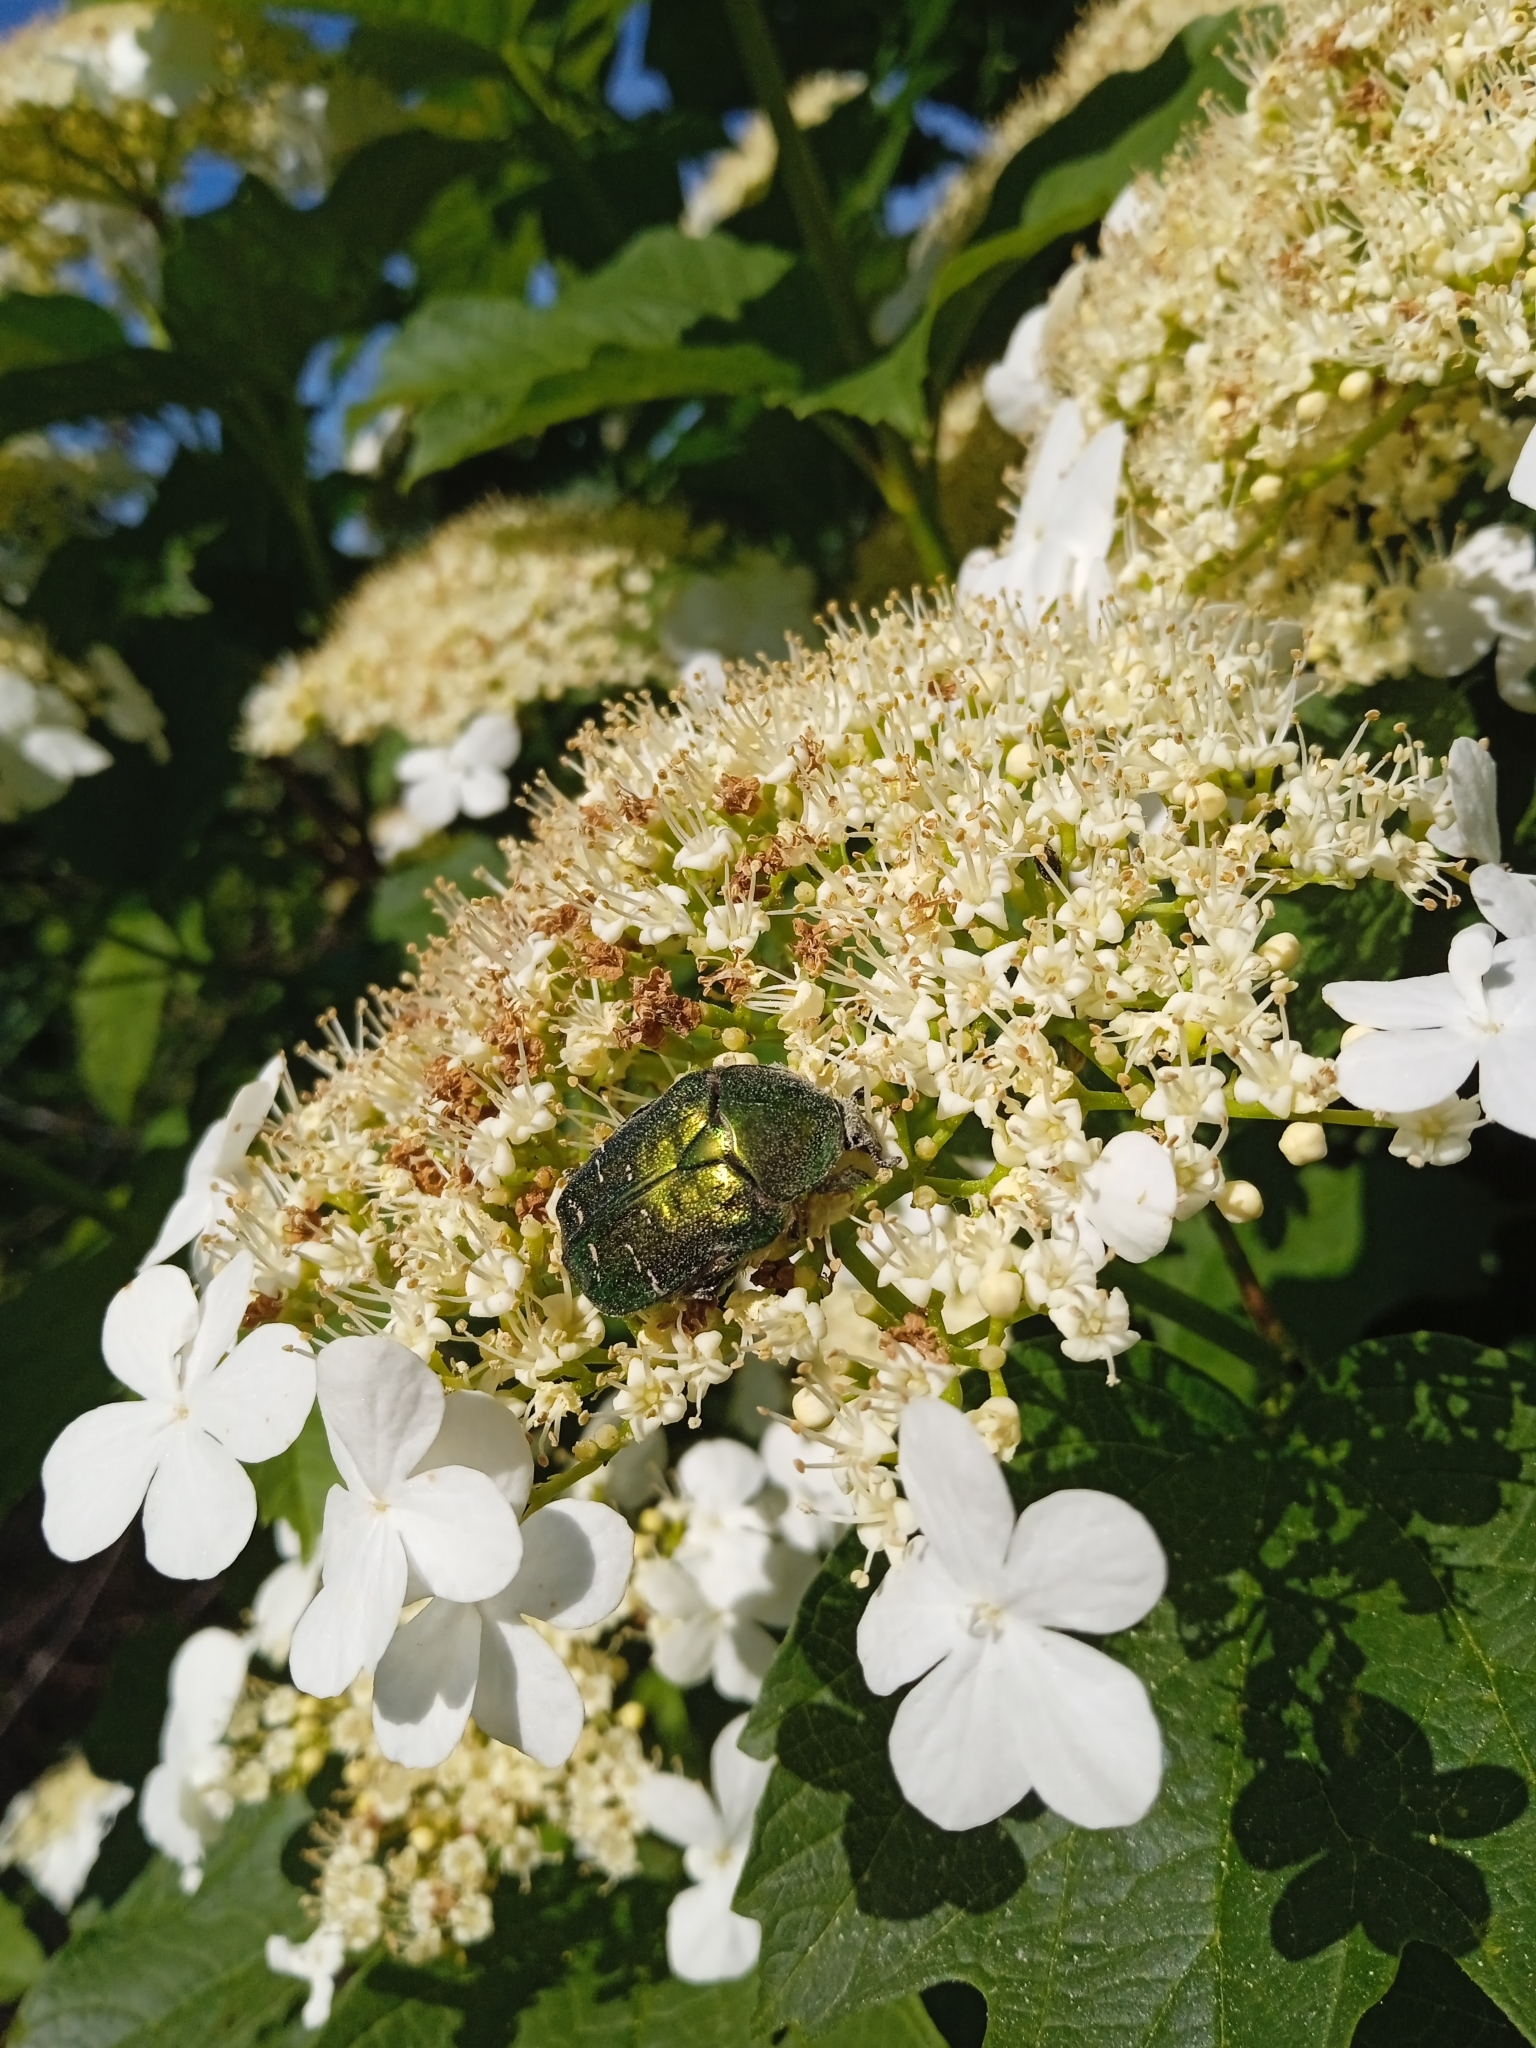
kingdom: Animalia
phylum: Arthropoda
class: Insecta
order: Coleoptera
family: Scarabaeidae
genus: Cetonia
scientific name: Cetonia aurata
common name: Rose chafer
